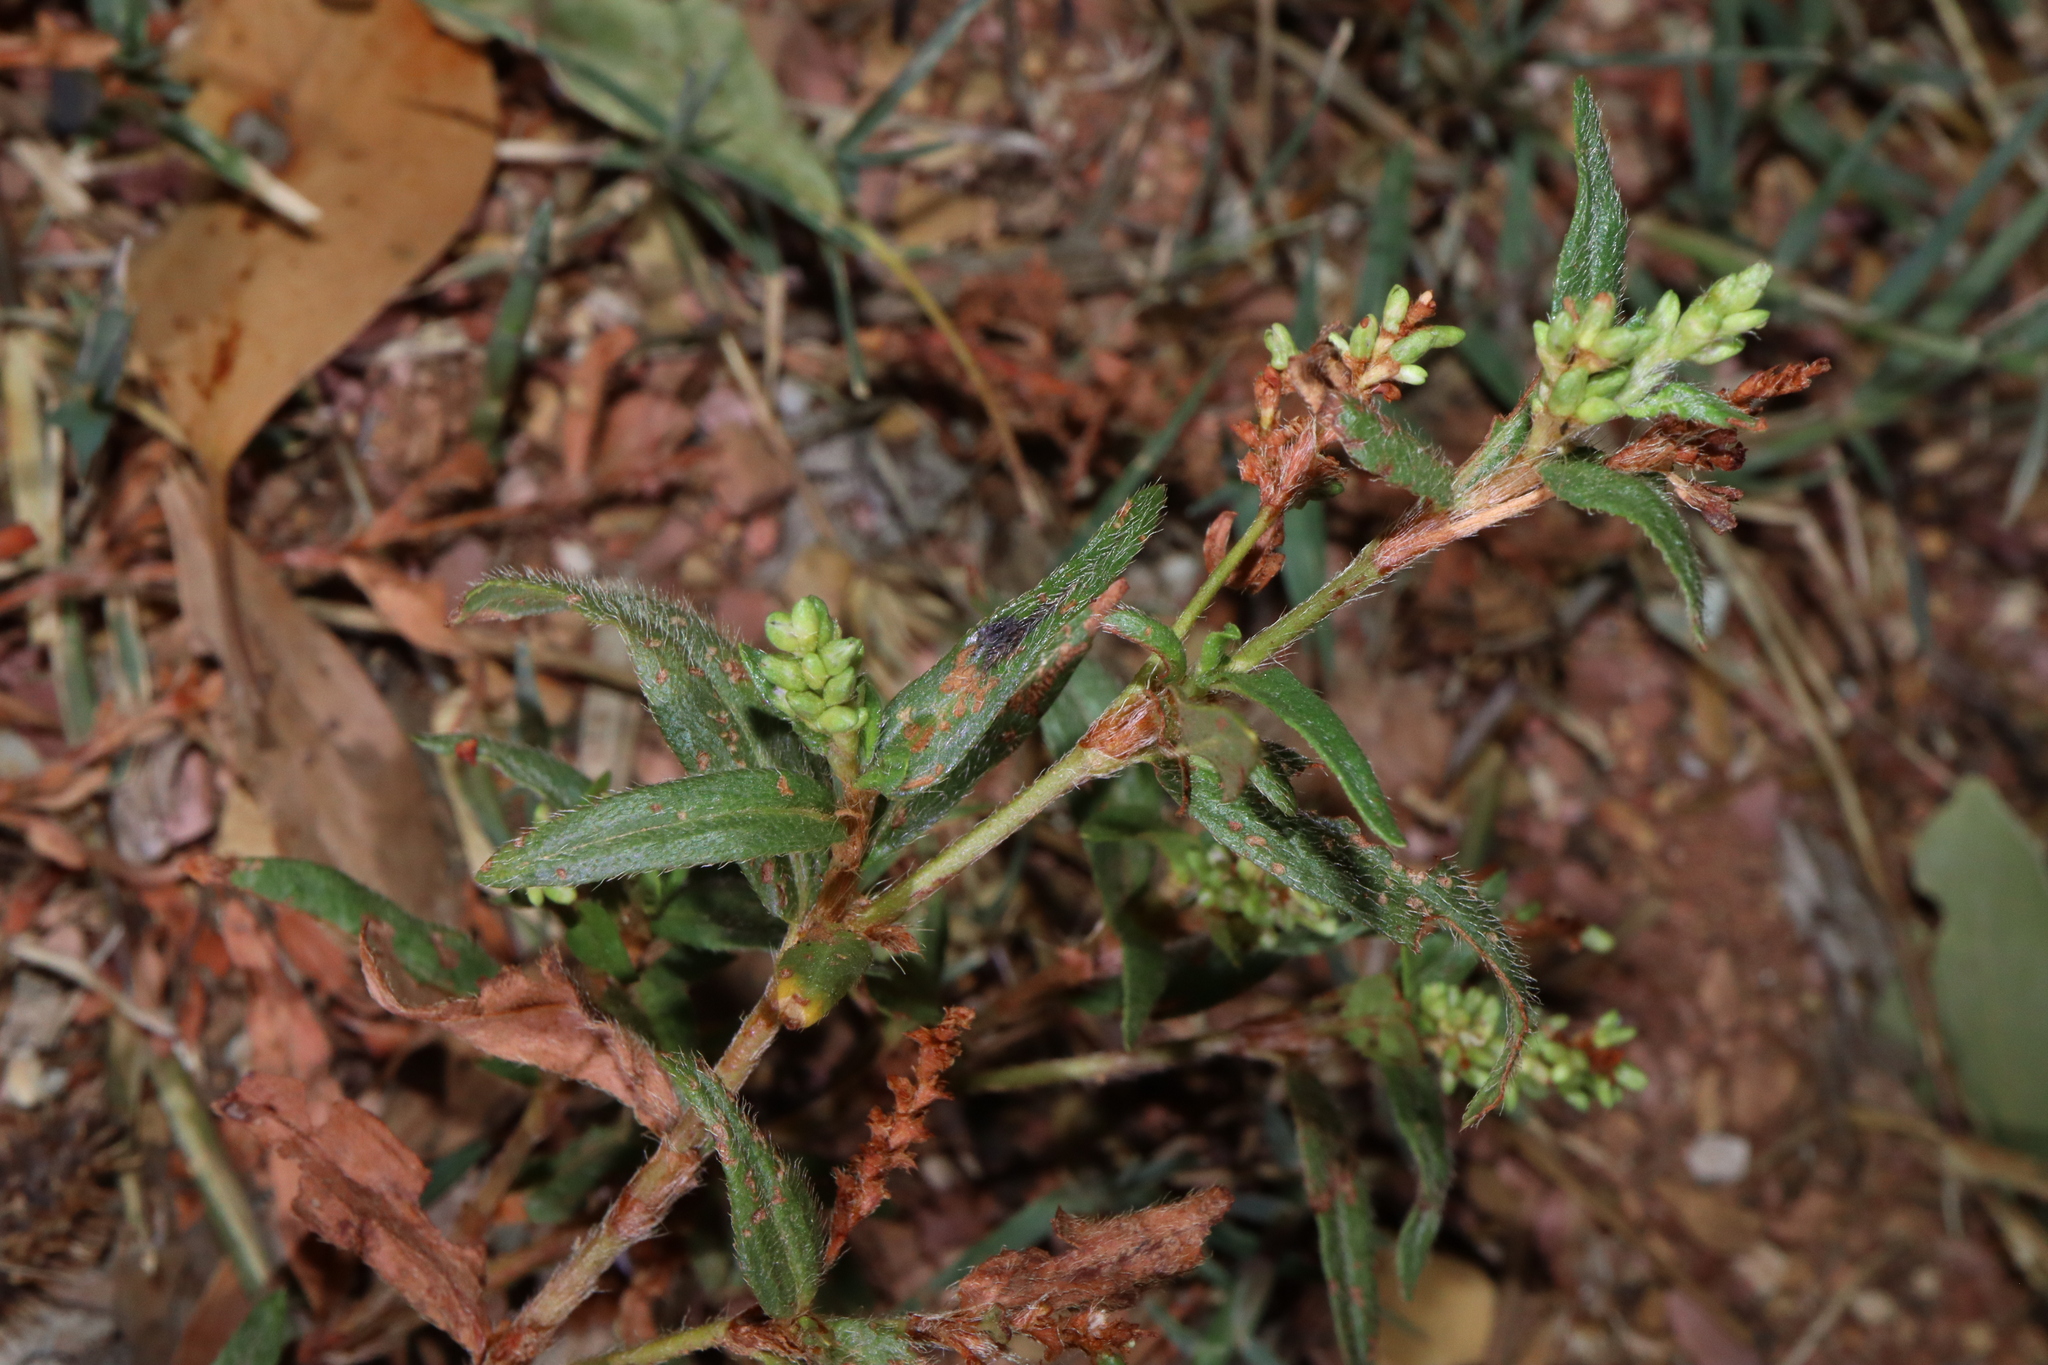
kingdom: Plantae
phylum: Tracheophyta
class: Magnoliopsida
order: Caryophyllales
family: Polygonaceae
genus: Persicaria
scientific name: Persicaria prostrata
